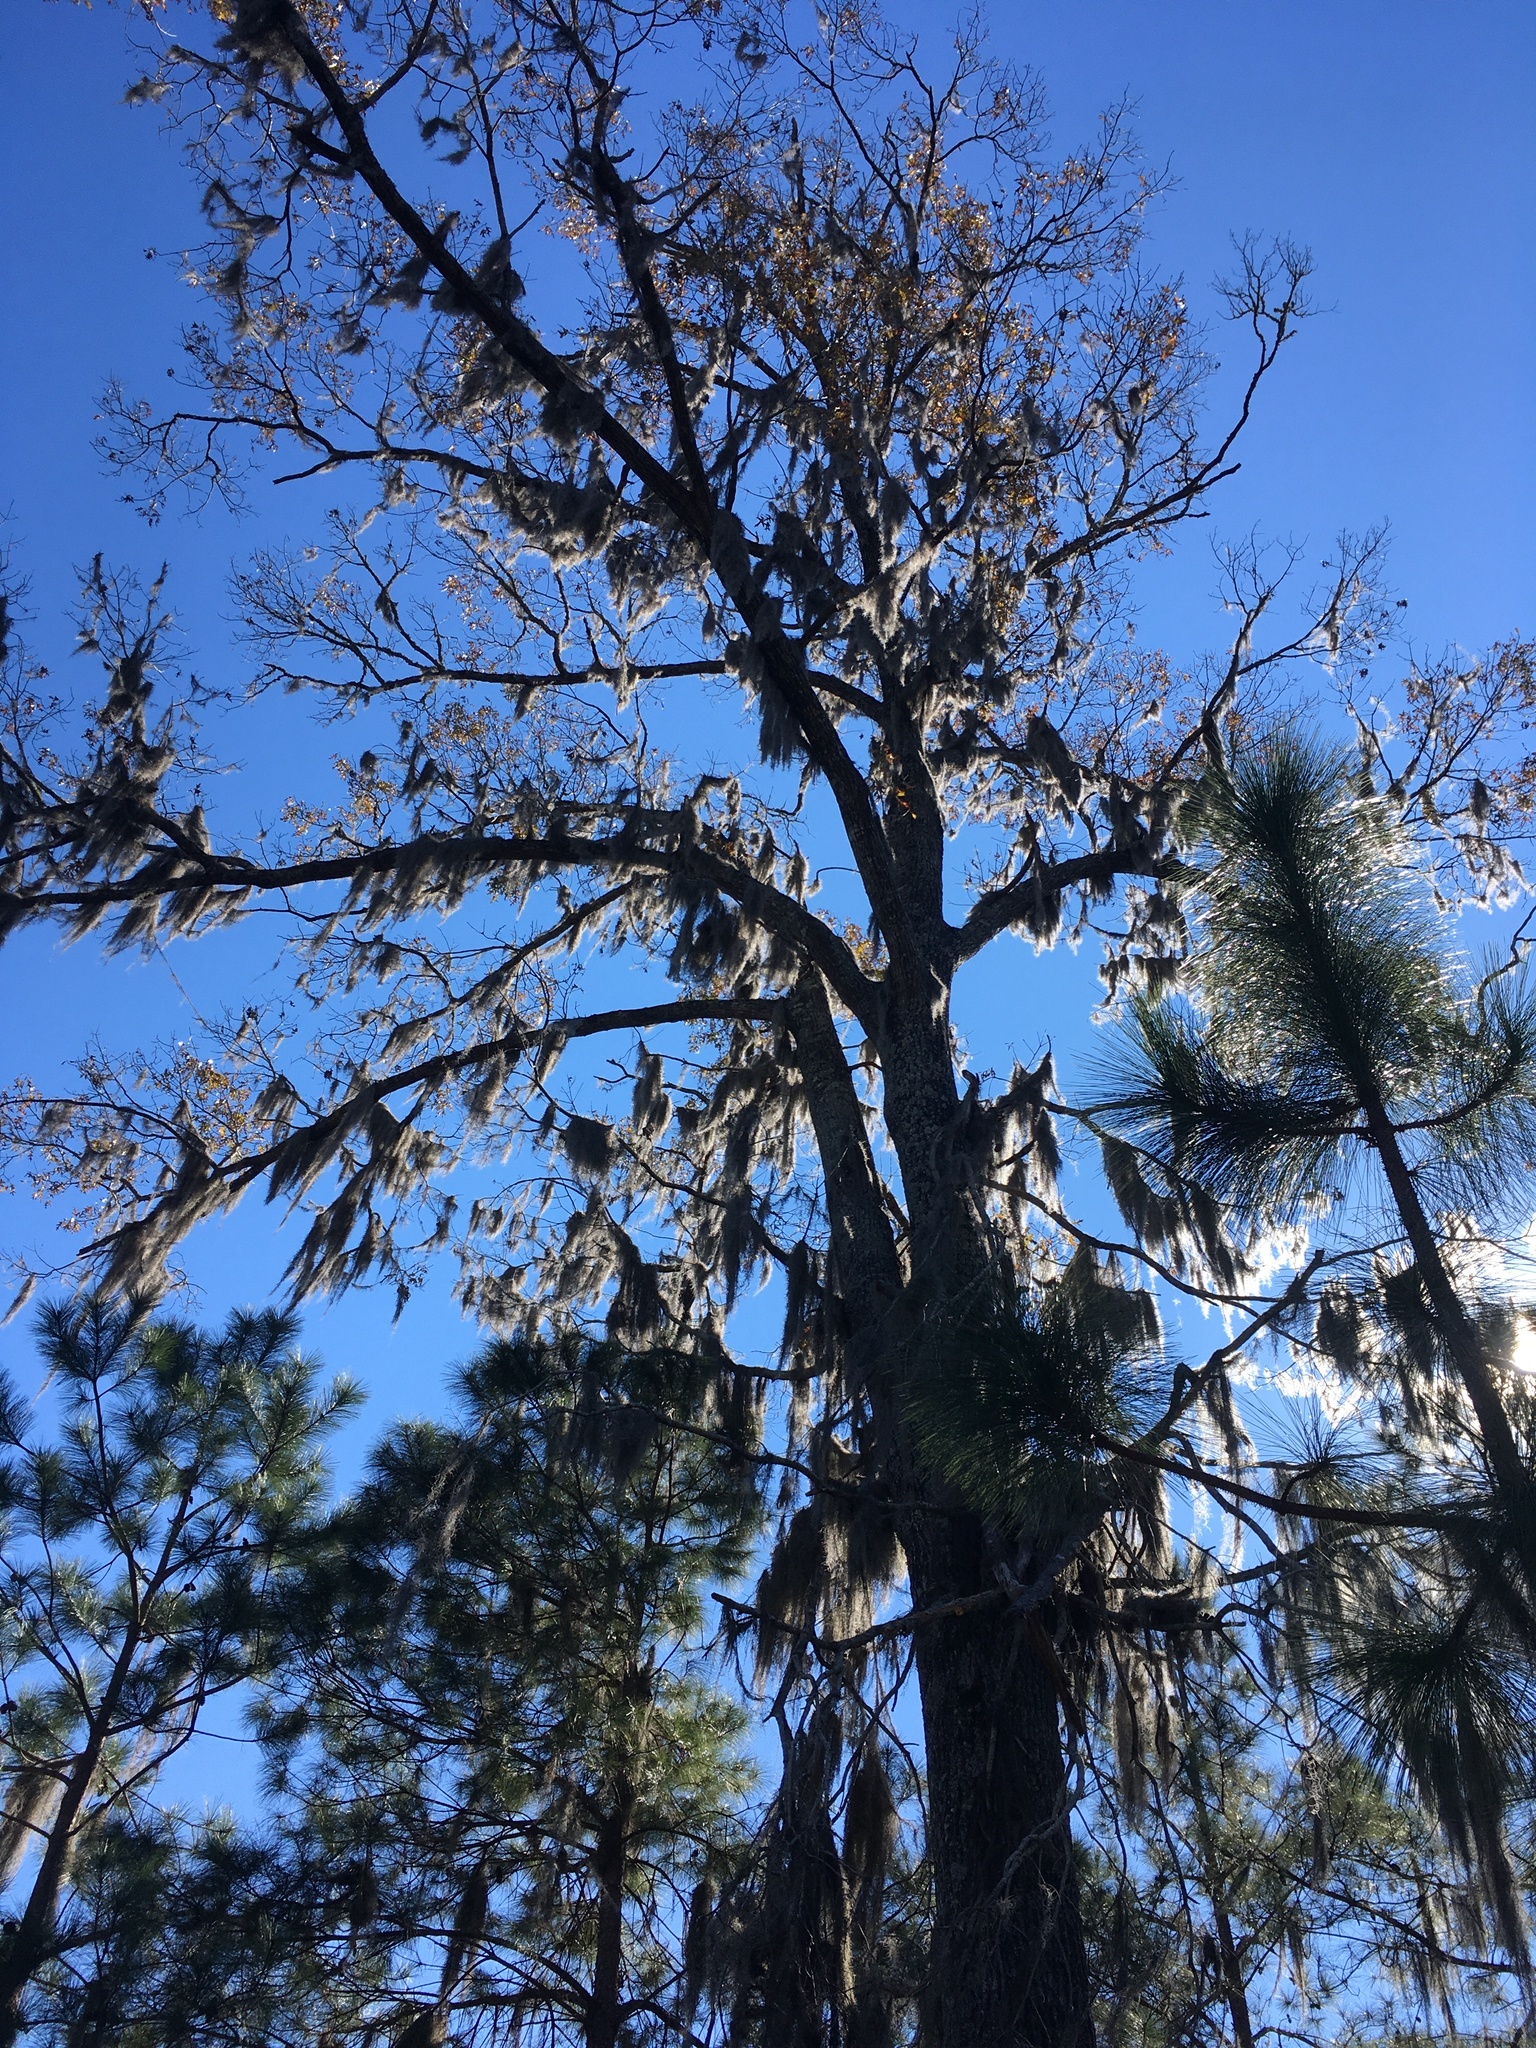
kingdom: Plantae
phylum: Tracheophyta
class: Magnoliopsida
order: Fagales
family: Fagaceae
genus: Quercus
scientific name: Quercus falcata
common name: Southern red oak
